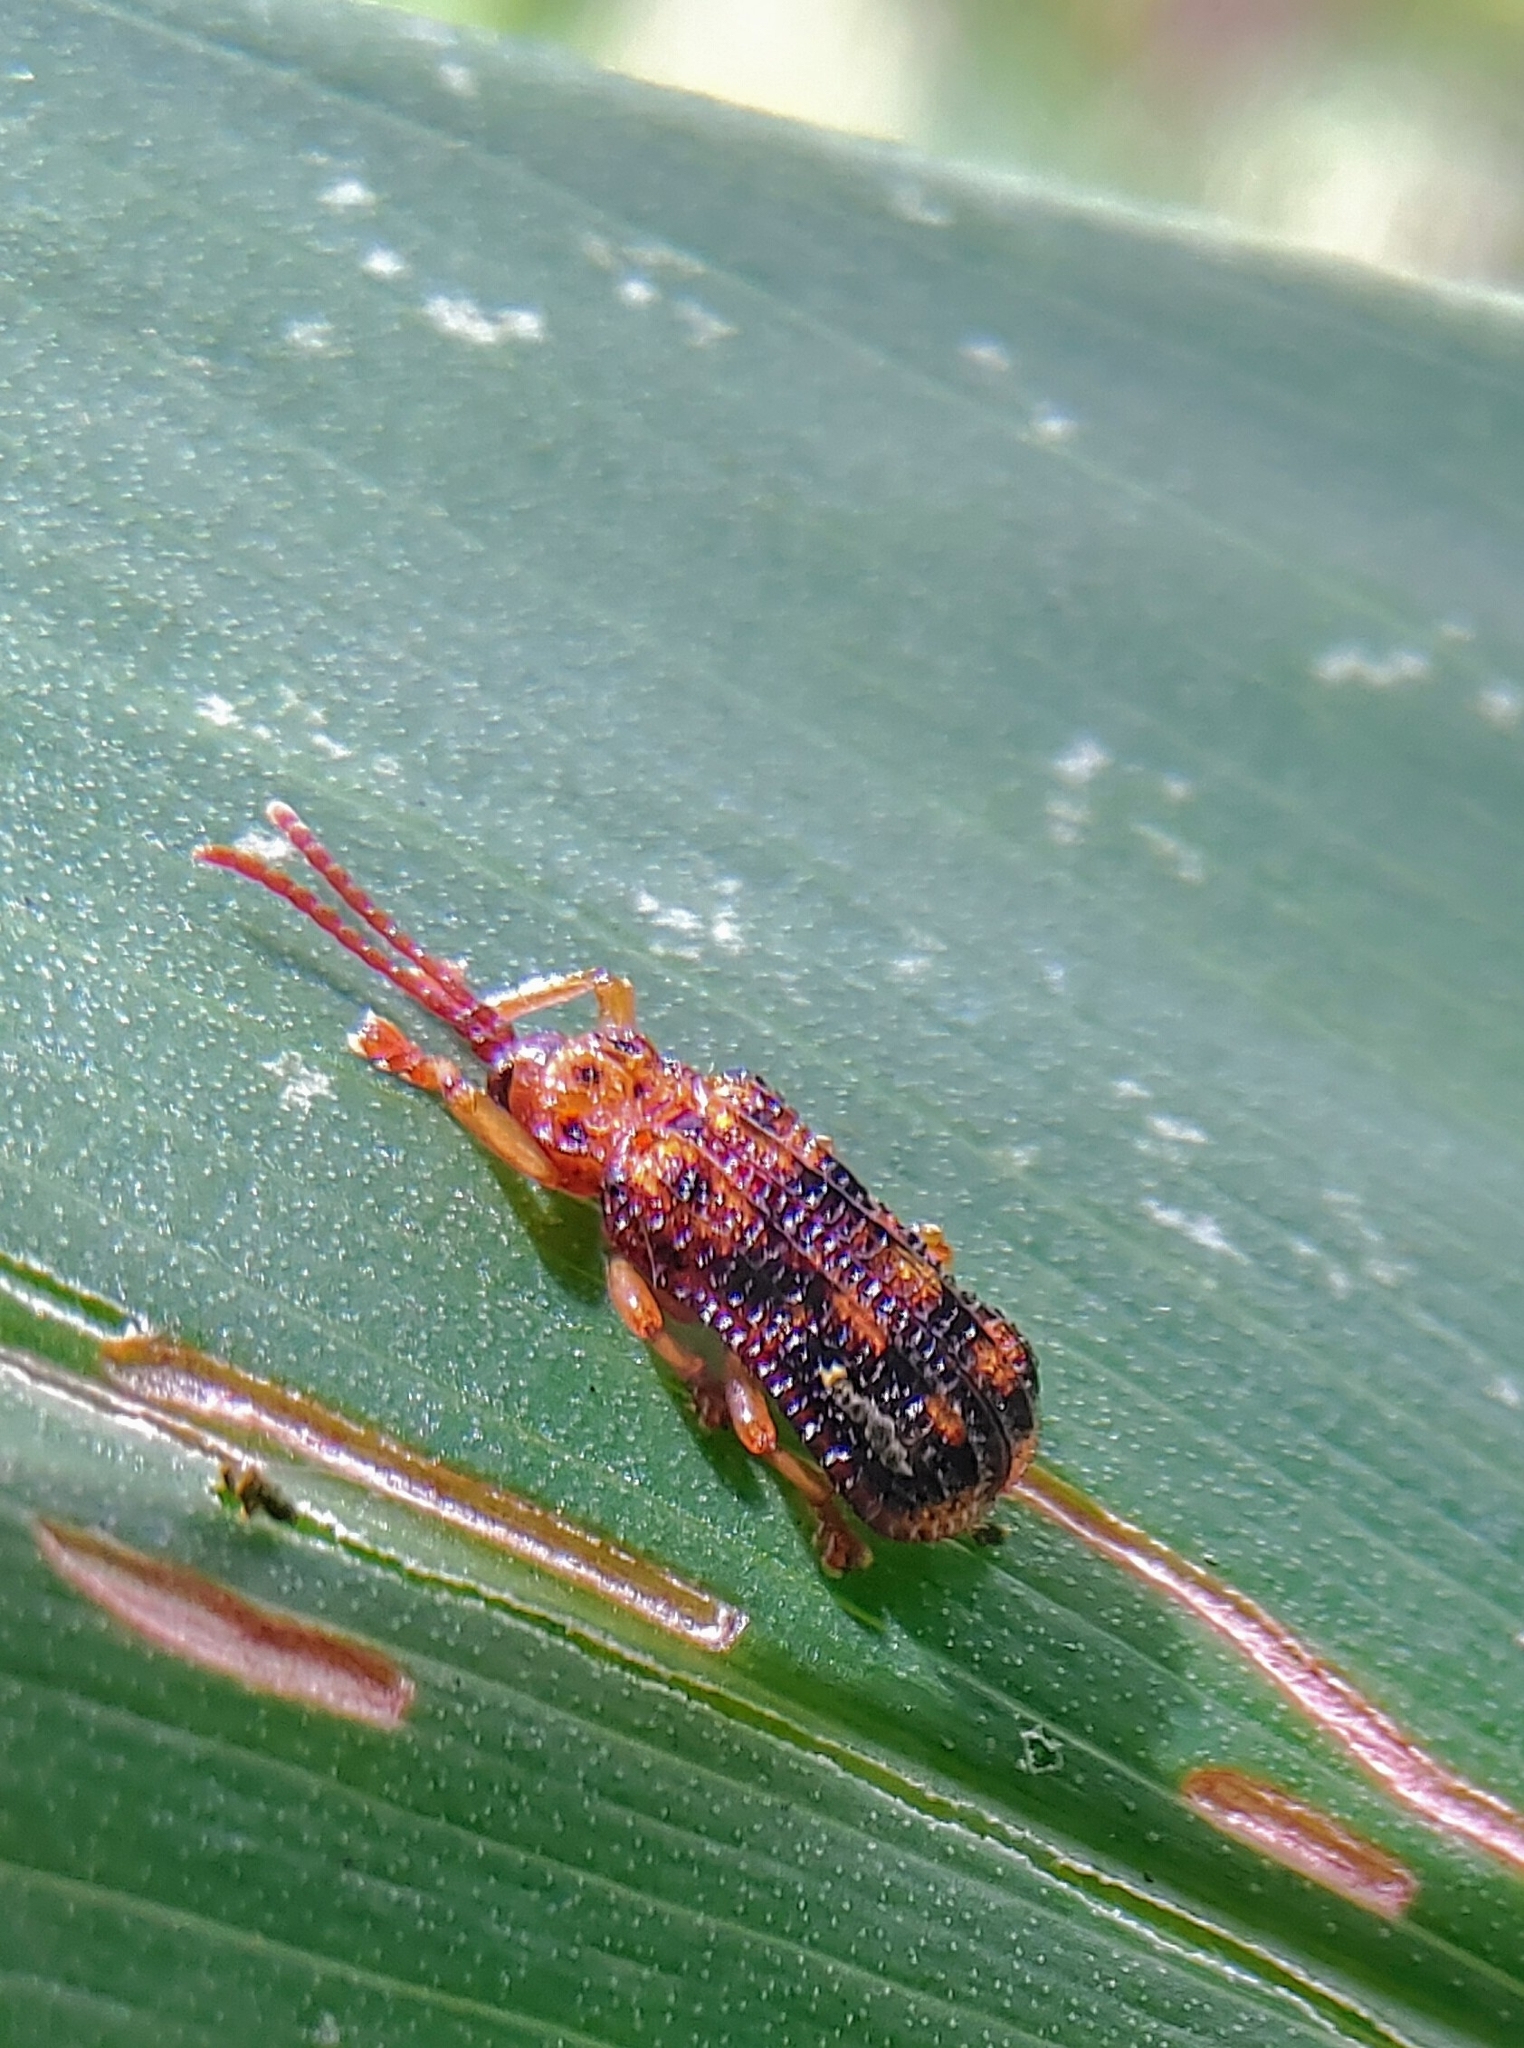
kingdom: Animalia
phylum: Arthropoda
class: Insecta
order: Coleoptera
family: Chrysomelidae
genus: Gonophora
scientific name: Gonophora pulchella
